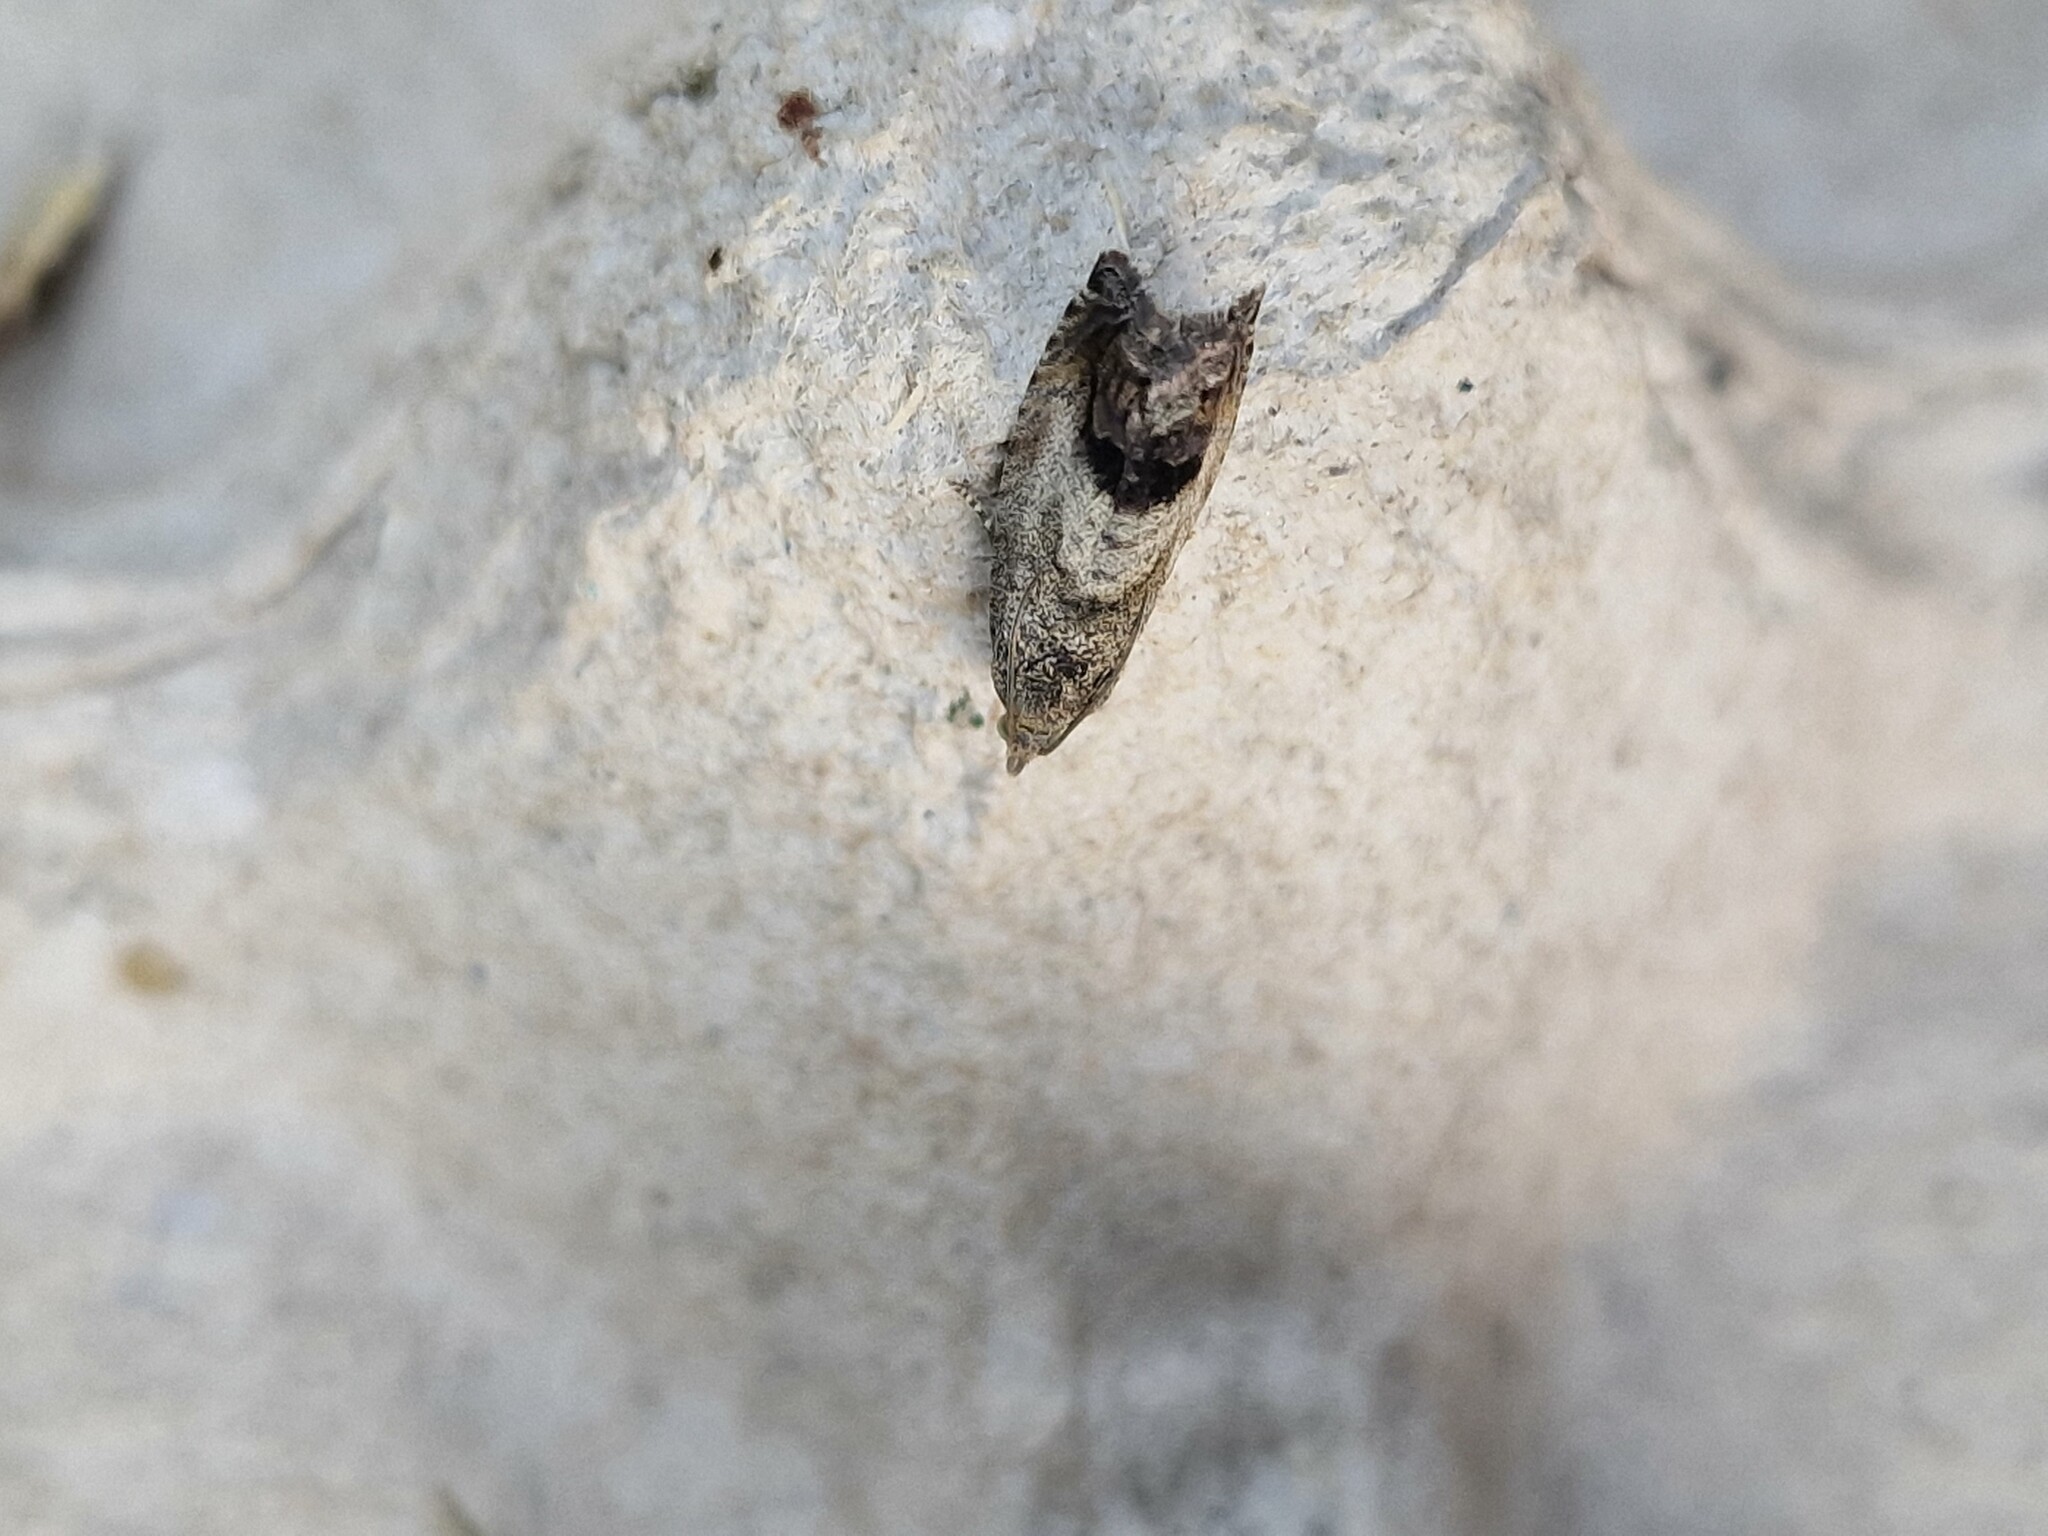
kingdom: Animalia
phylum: Arthropoda
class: Insecta
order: Lepidoptera
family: Tortricidae
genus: Cydia
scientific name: Cydia splendana
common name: De: kastanienwickler, eichenwickler es: oruga de la castaña fr: carpocapse des châtaignes it: cidia o tortrice tardiva delle castagne pt: bichado das castanhas gb: acorn moth, chestnut fruit tortrix
